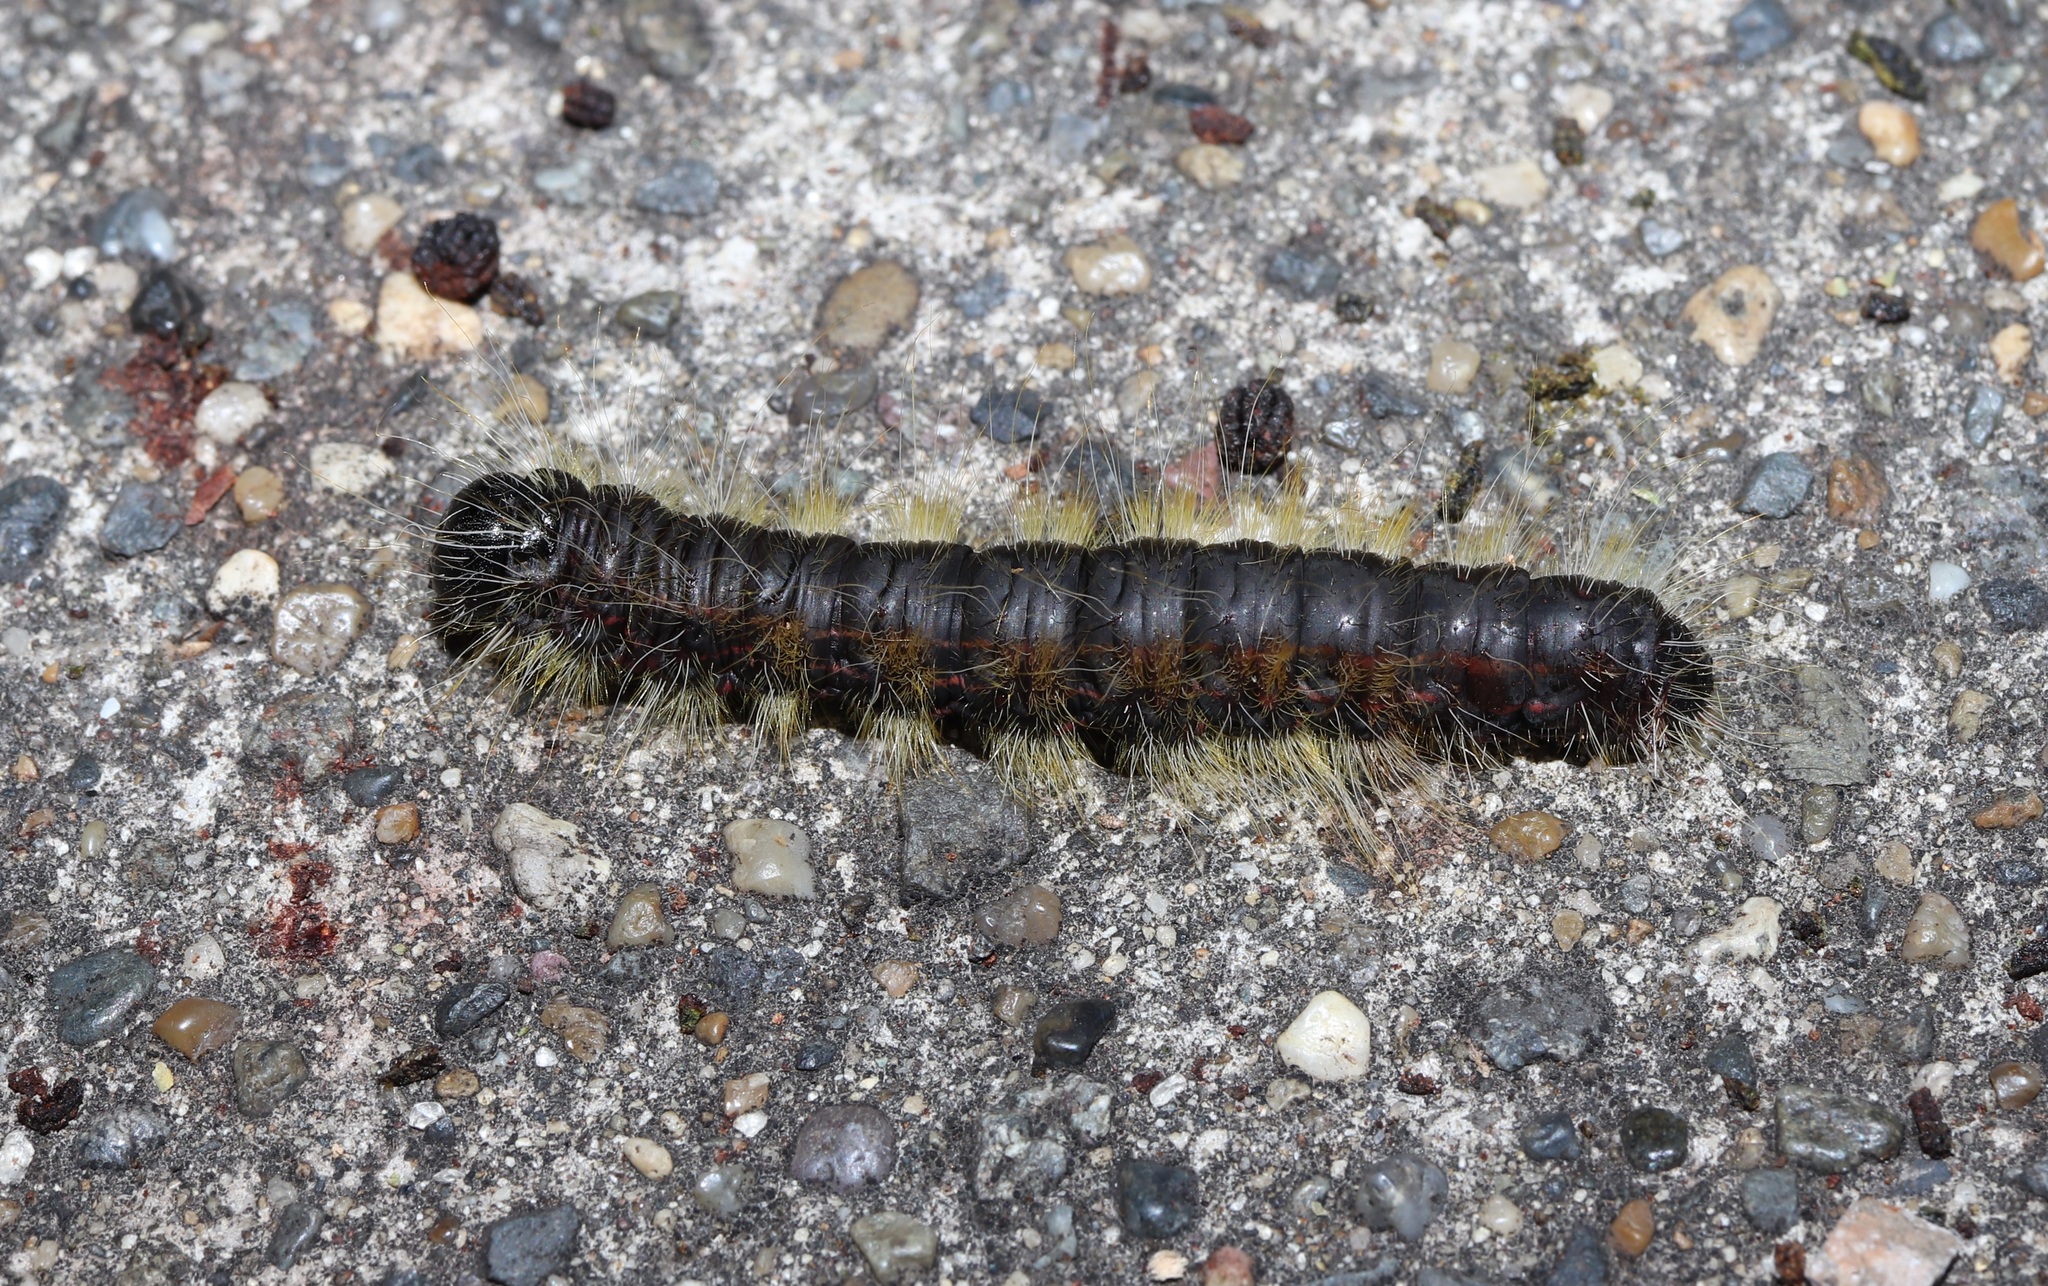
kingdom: Animalia
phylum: Arthropoda
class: Insecta
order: Lepidoptera
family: Notodontidae
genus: Phalera
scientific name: Phalera flavescens
